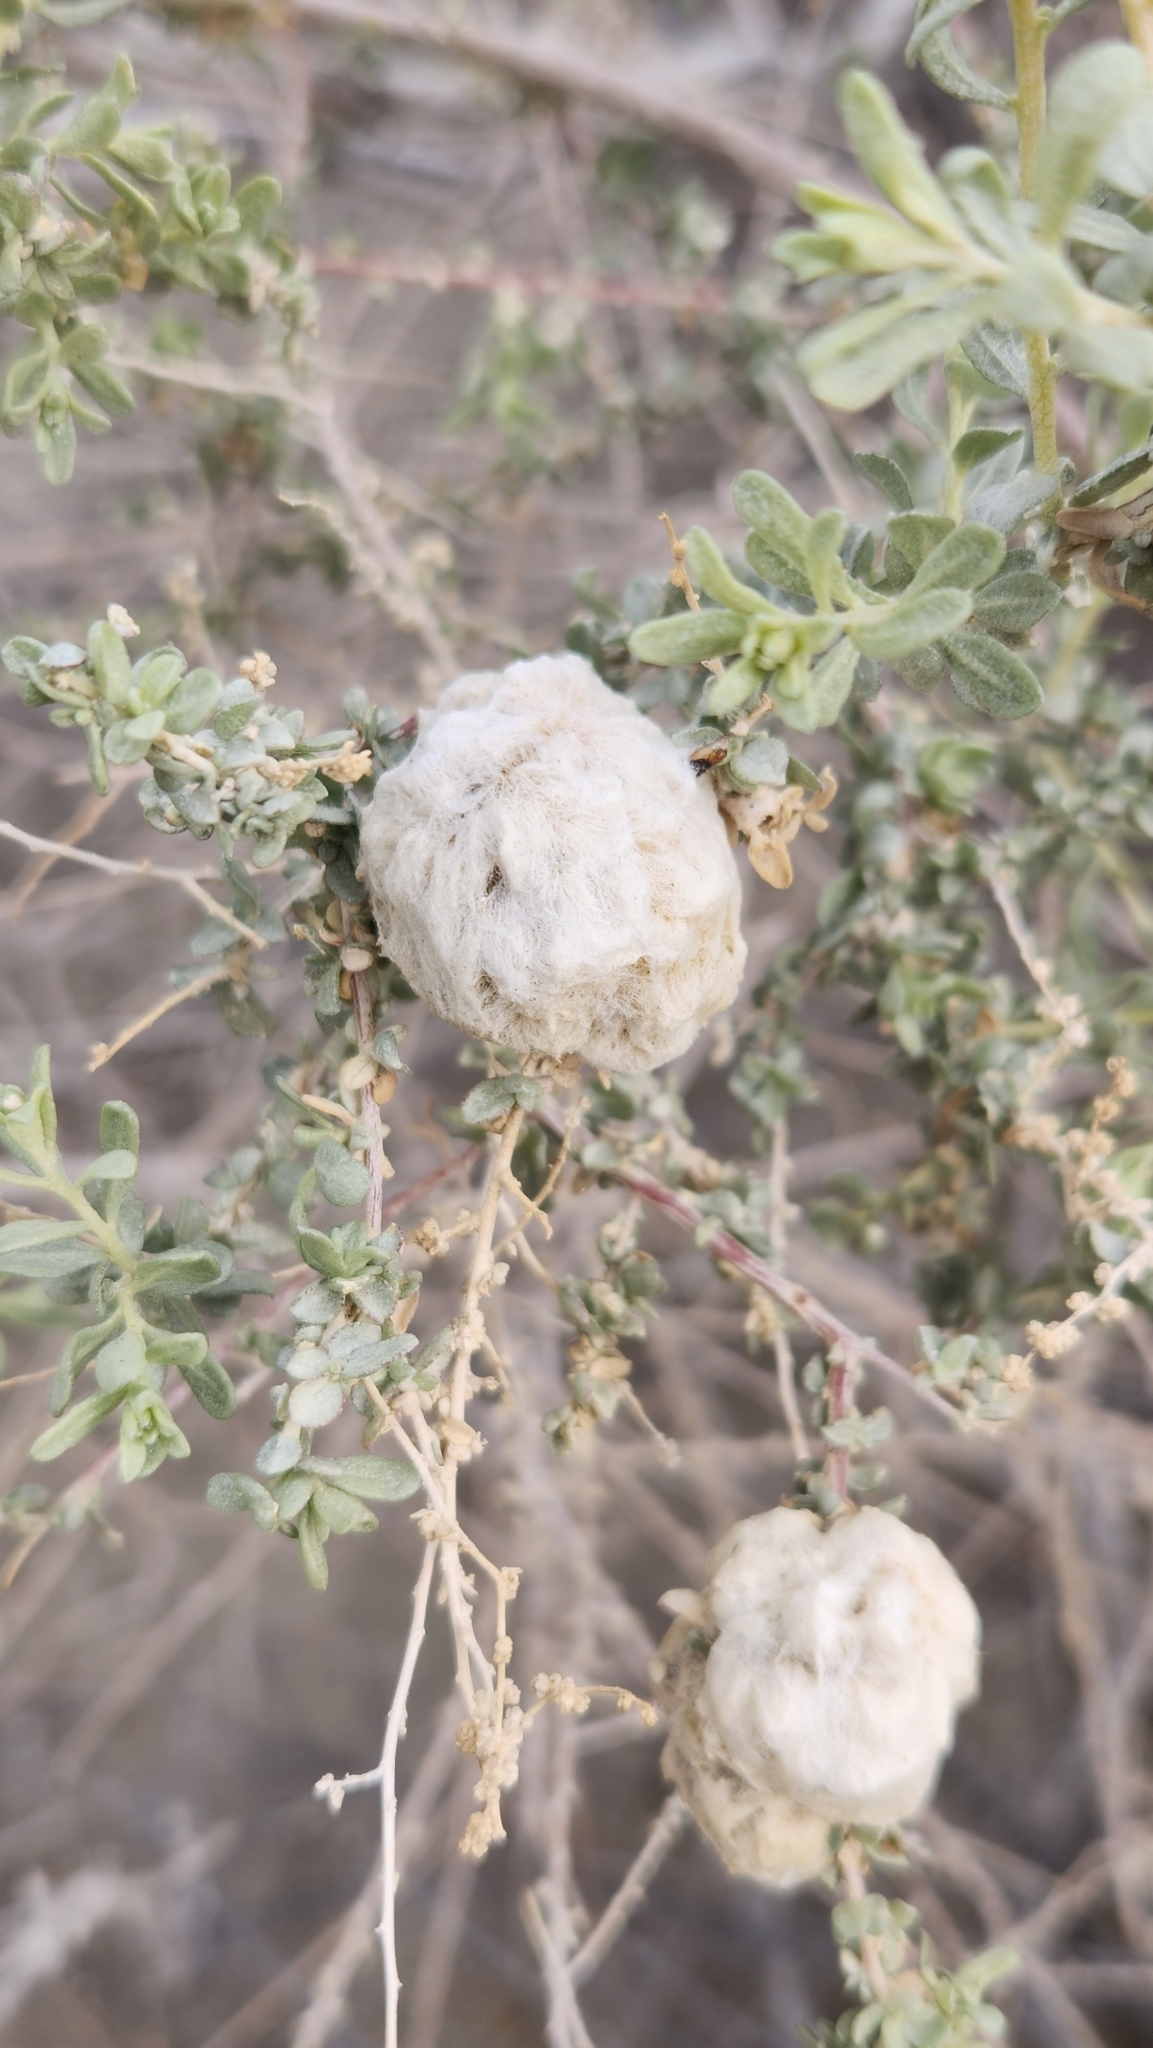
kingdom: Animalia
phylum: Arthropoda
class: Insecta
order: Diptera
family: Cecidomyiidae
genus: Asphondylia
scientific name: Asphondylia floccosa
